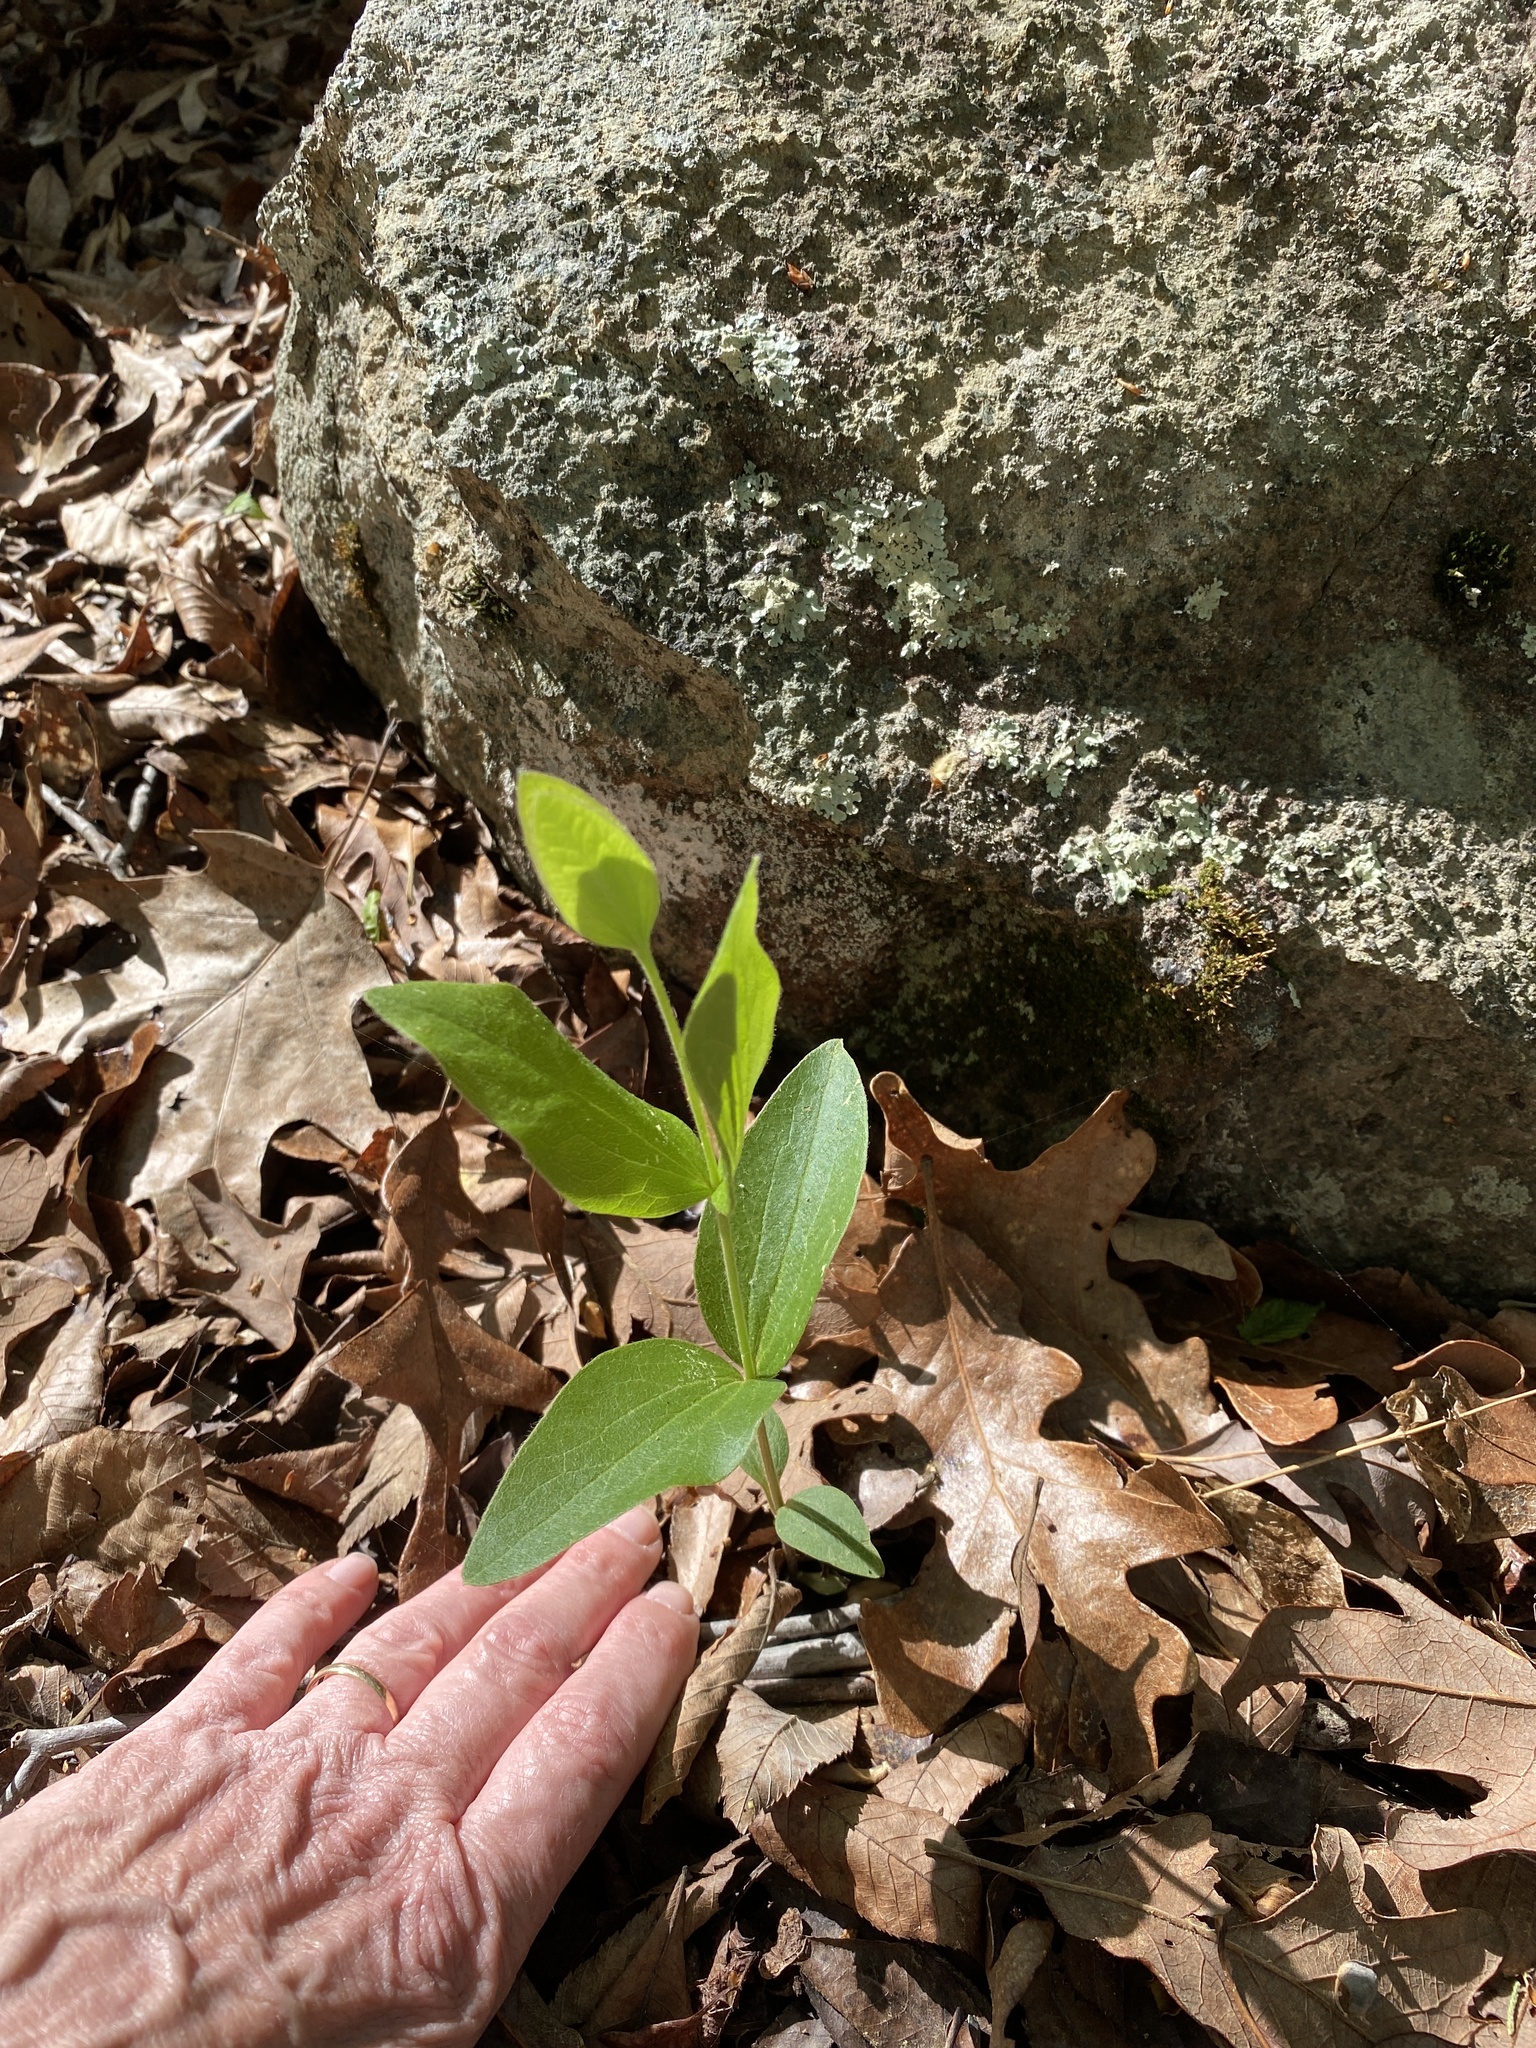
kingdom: Plantae
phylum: Tracheophyta
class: Magnoliopsida
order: Ranunculales
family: Ranunculaceae
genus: Clematis
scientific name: Clematis ochroleuca
